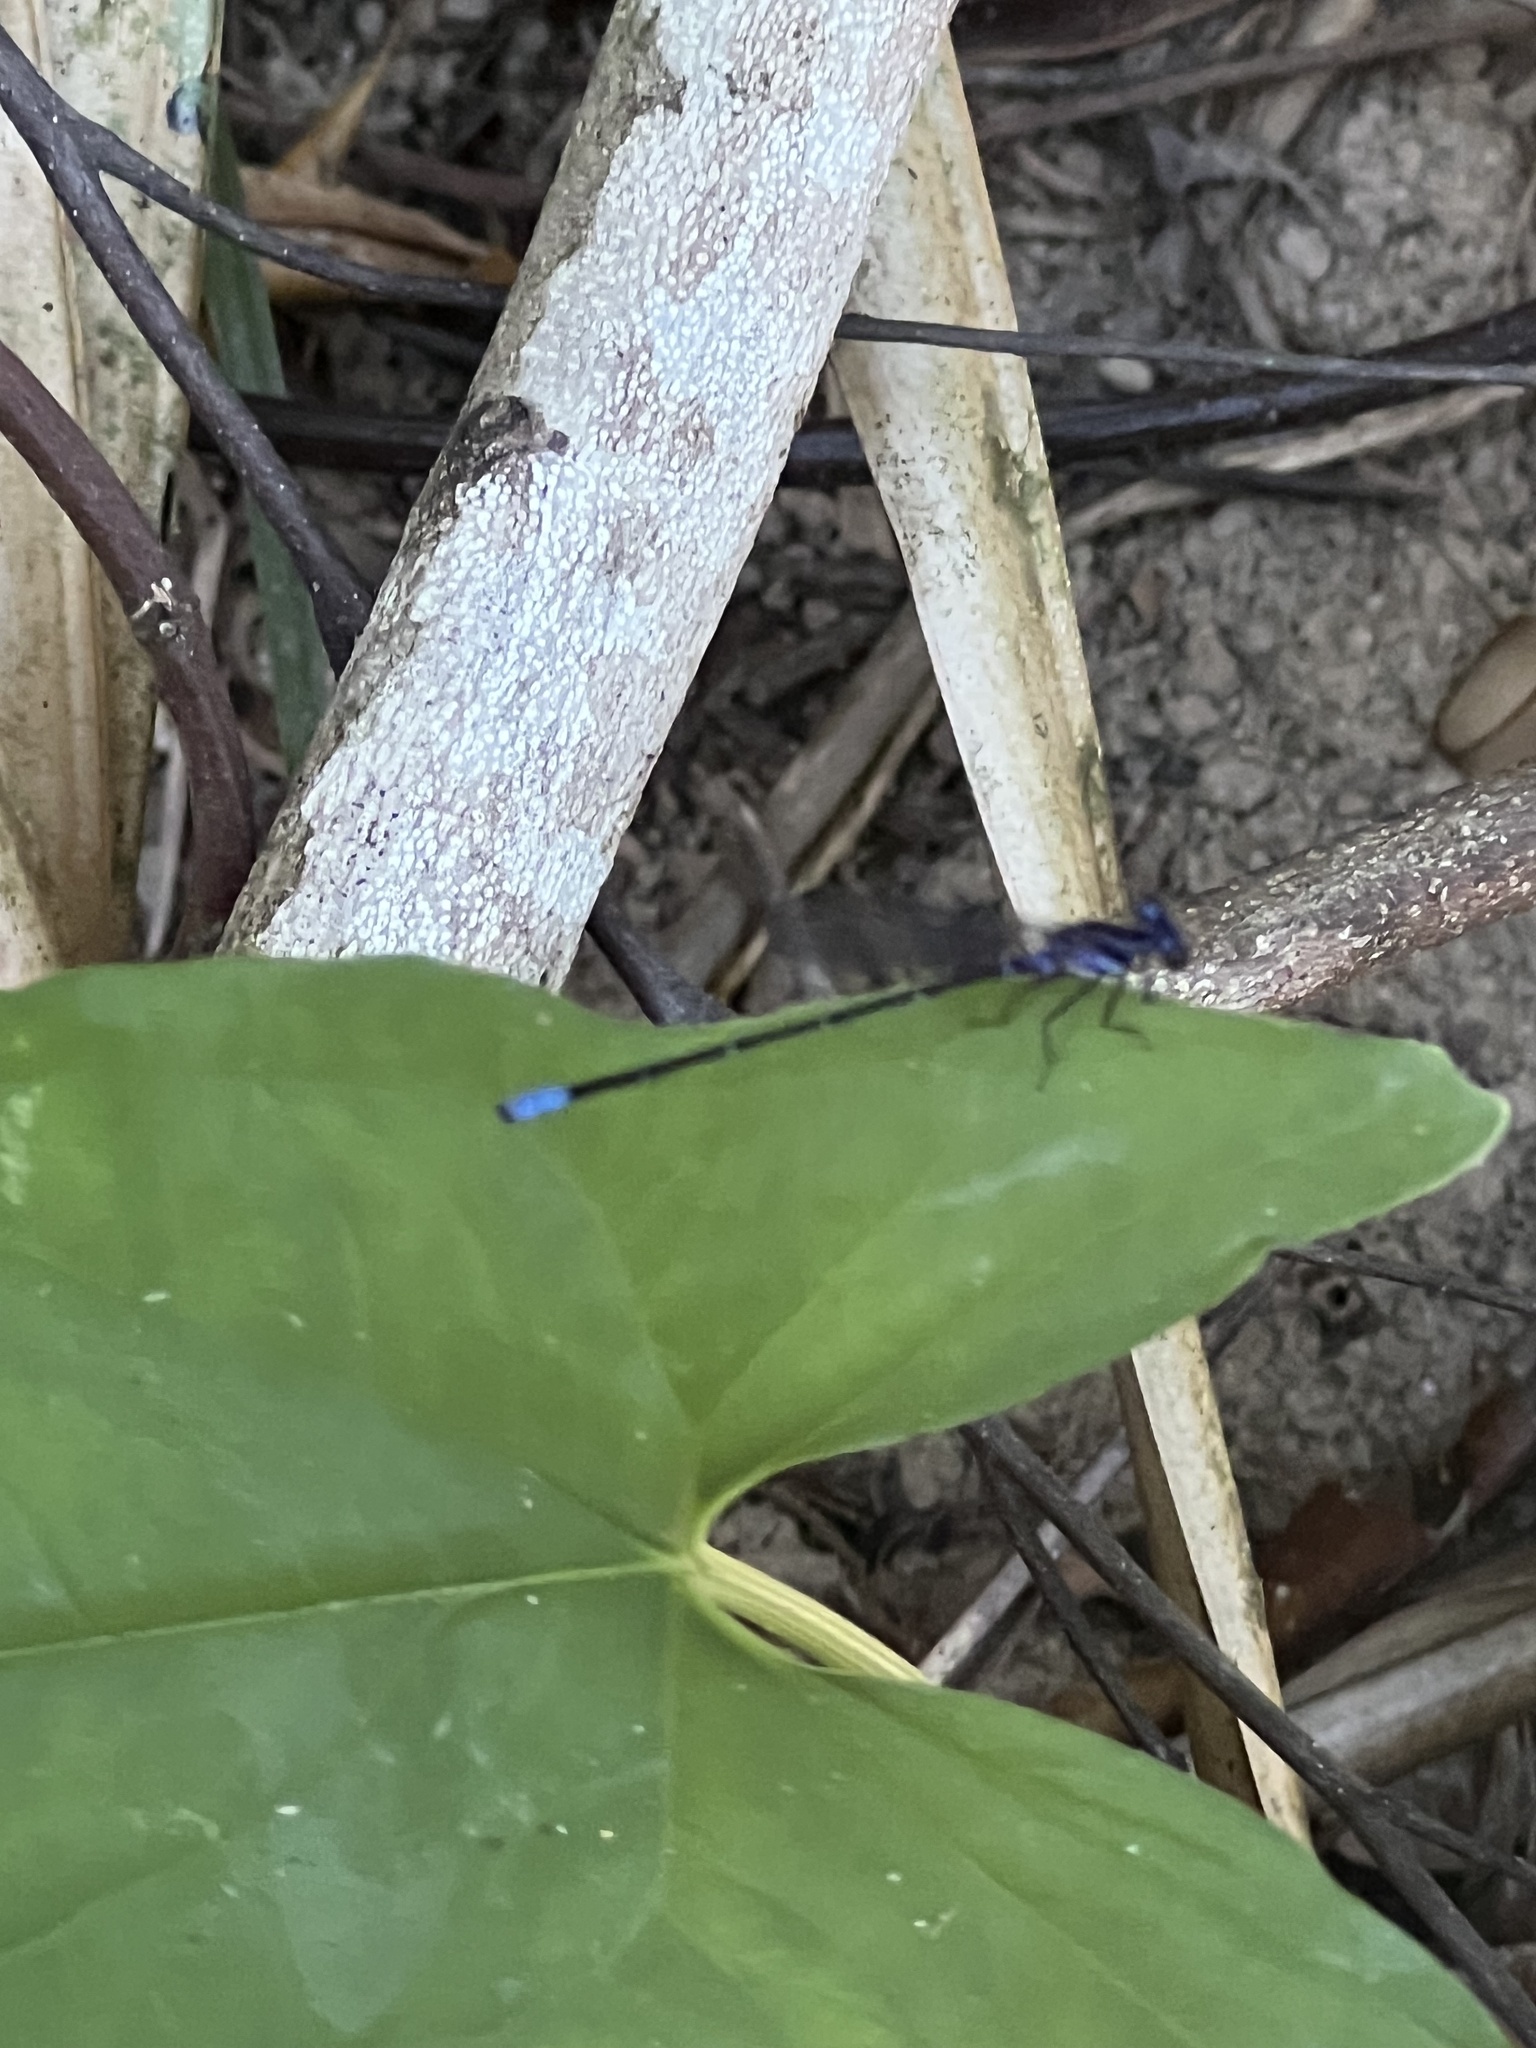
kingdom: Animalia
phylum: Arthropoda
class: Insecta
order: Odonata
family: Coenagrionidae
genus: Argia
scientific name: Argia frequentula
